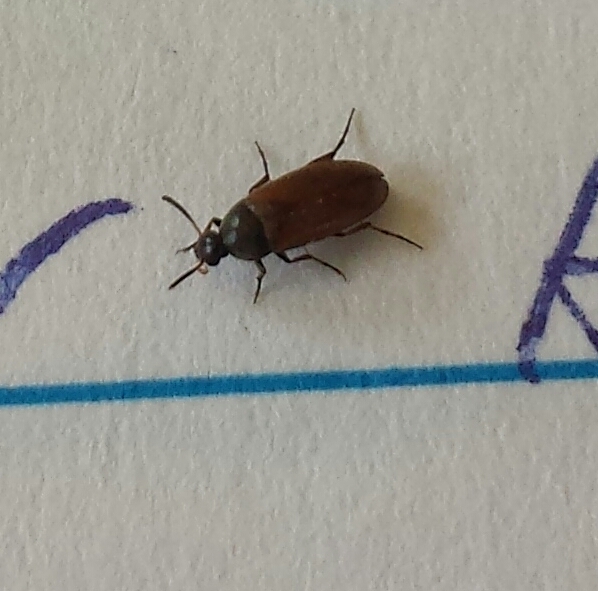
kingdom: Animalia
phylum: Arthropoda
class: Insecta
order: Coleoptera
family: Scraptiidae
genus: Anaspis
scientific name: Anaspis flavipennis
